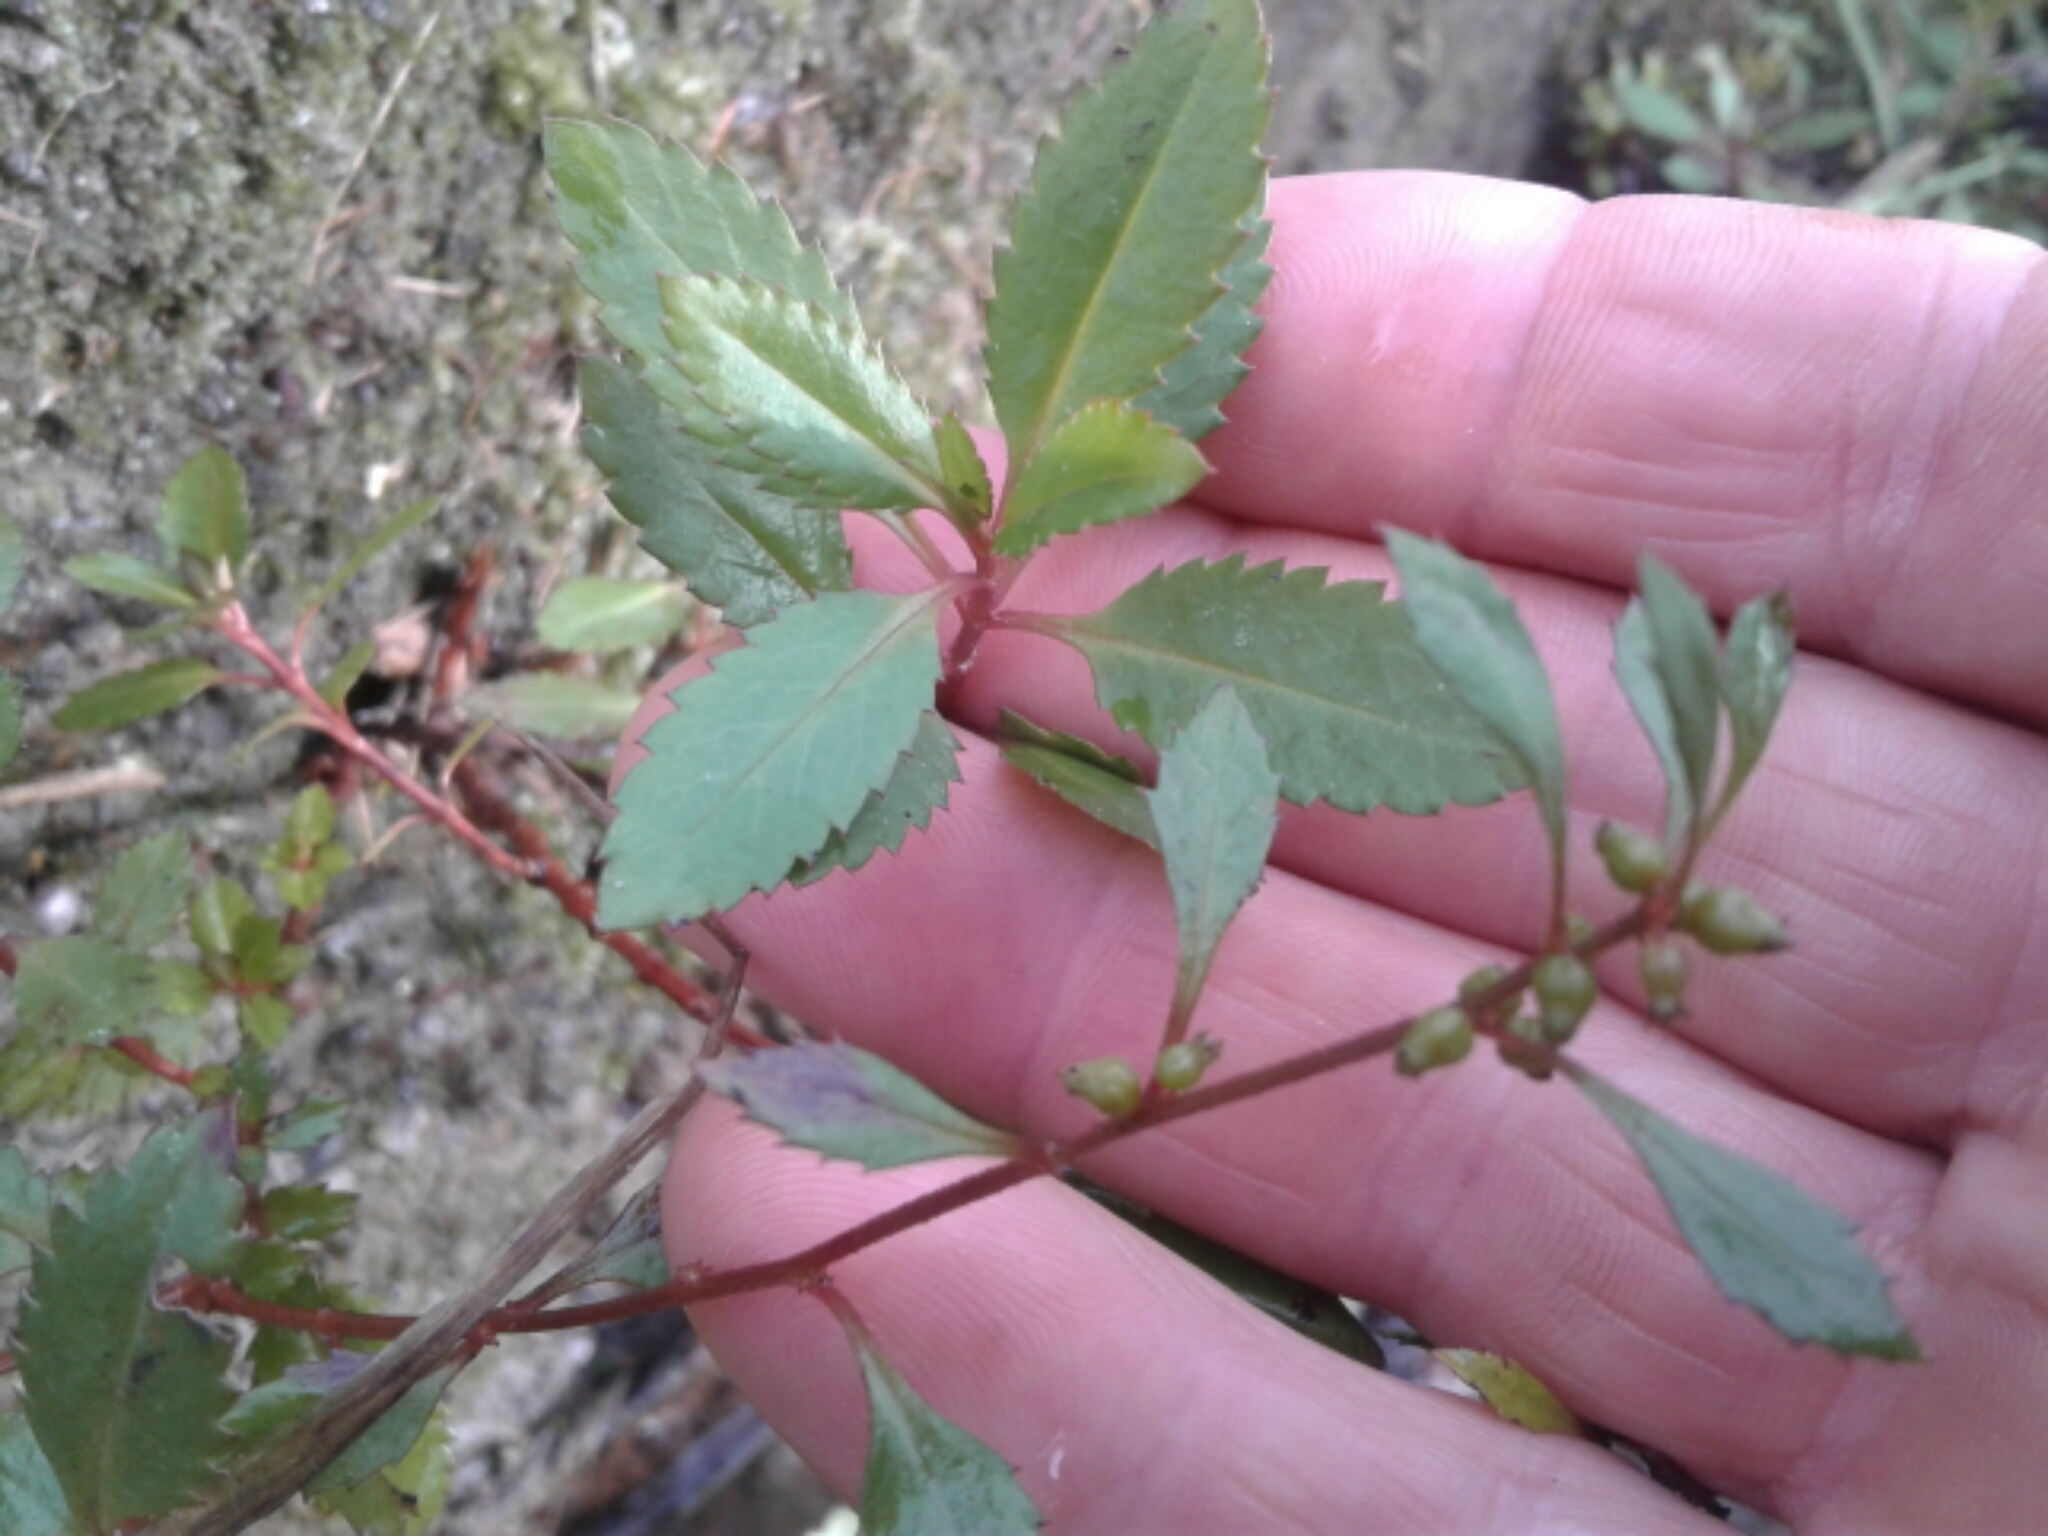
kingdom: Plantae
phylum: Tracheophyta
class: Magnoliopsida
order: Saxifragales
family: Haloragaceae
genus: Haloragis
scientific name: Haloragis erecta
